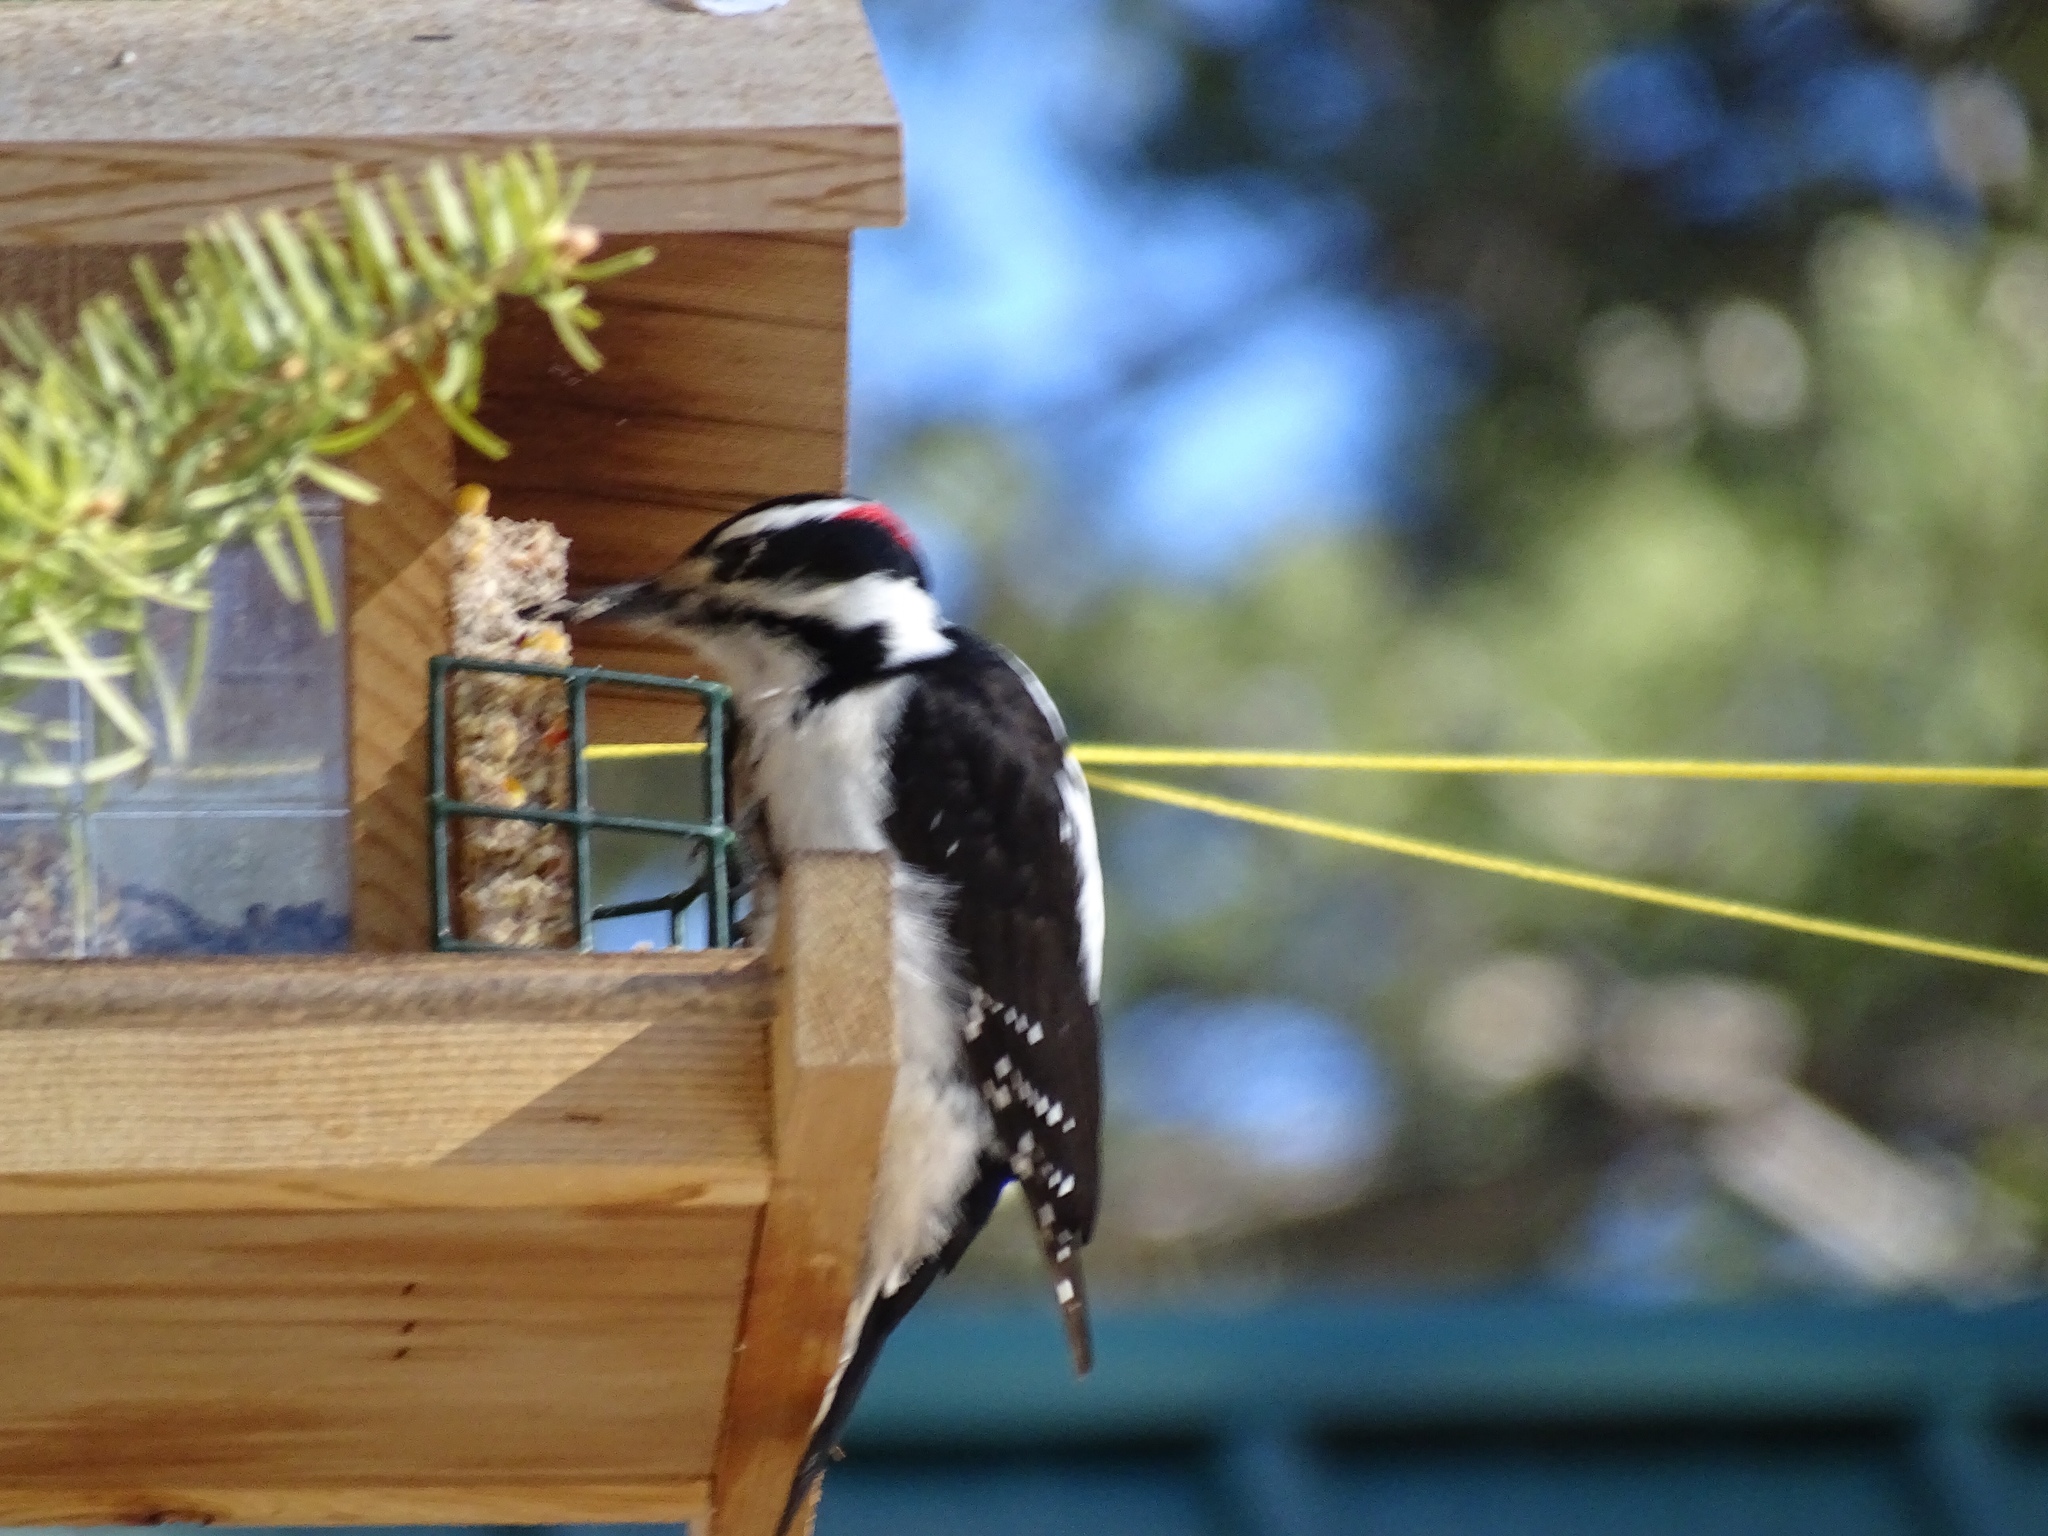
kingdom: Animalia
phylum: Chordata
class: Aves
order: Piciformes
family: Picidae
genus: Leuconotopicus
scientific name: Leuconotopicus villosus
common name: Hairy woodpecker
